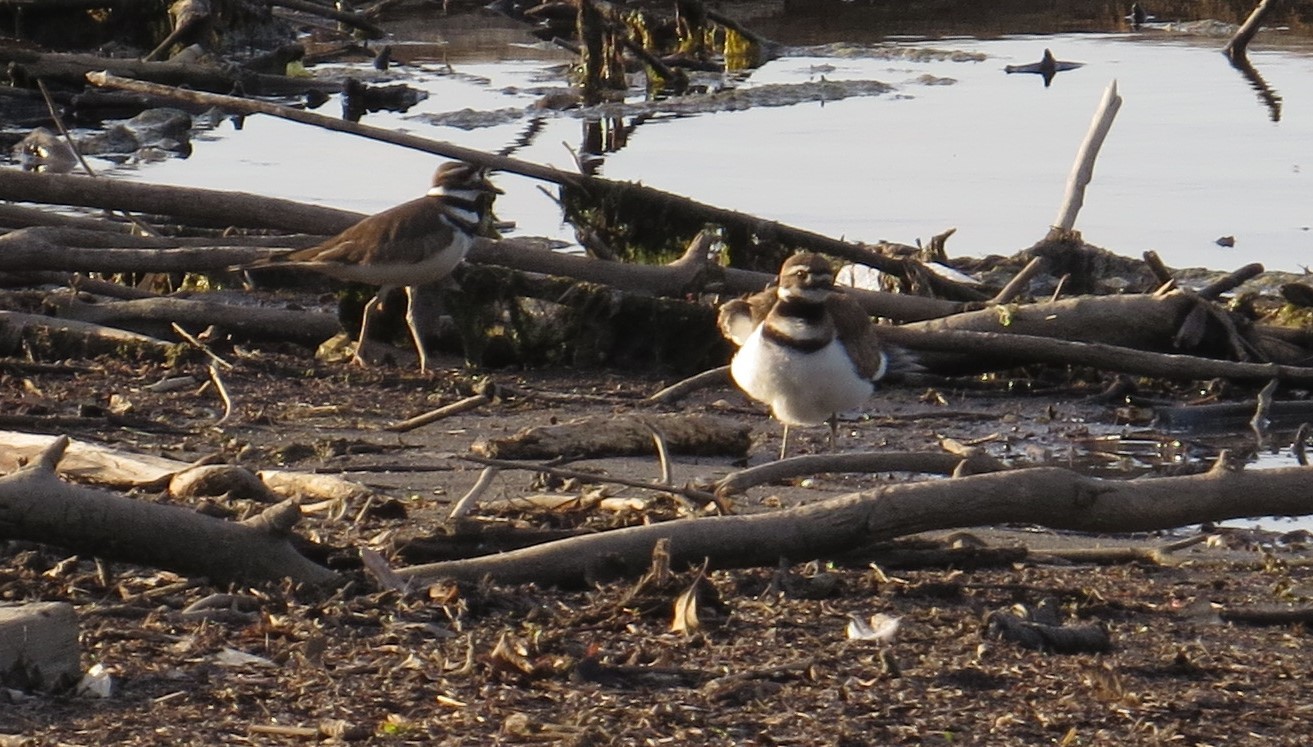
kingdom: Animalia
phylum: Chordata
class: Aves
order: Charadriiformes
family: Charadriidae
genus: Charadrius
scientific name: Charadrius vociferus
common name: Killdeer
